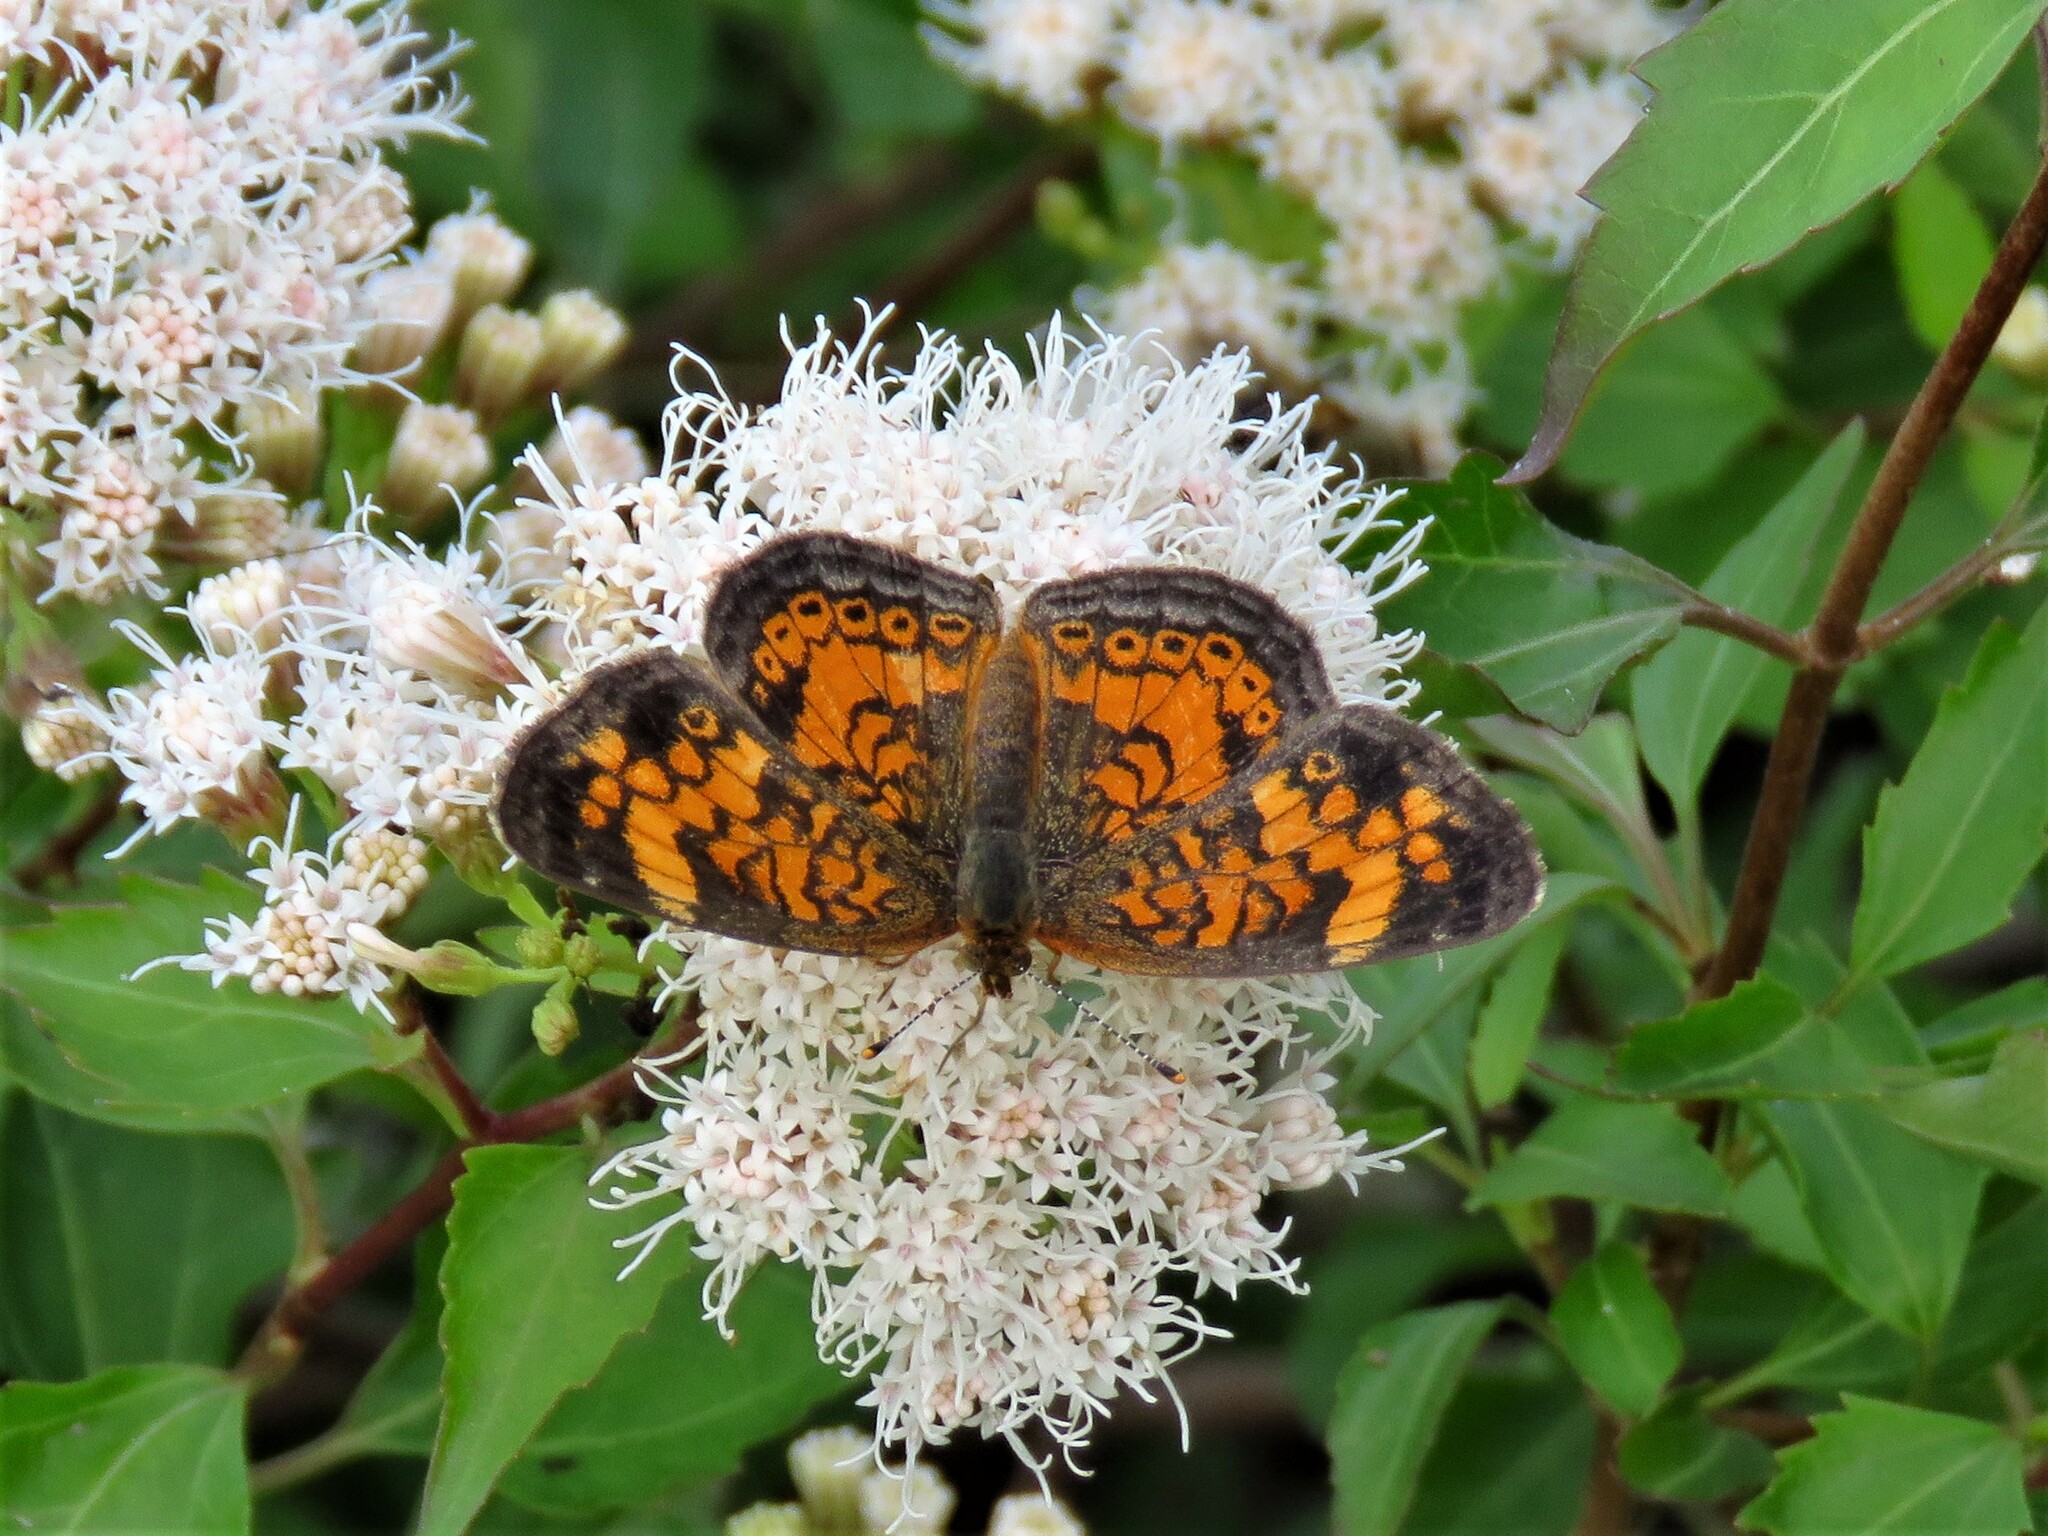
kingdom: Animalia
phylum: Arthropoda
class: Insecta
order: Lepidoptera
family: Nymphalidae
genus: Phyciodes
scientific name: Phyciodes tharos
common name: Pearl crescent
